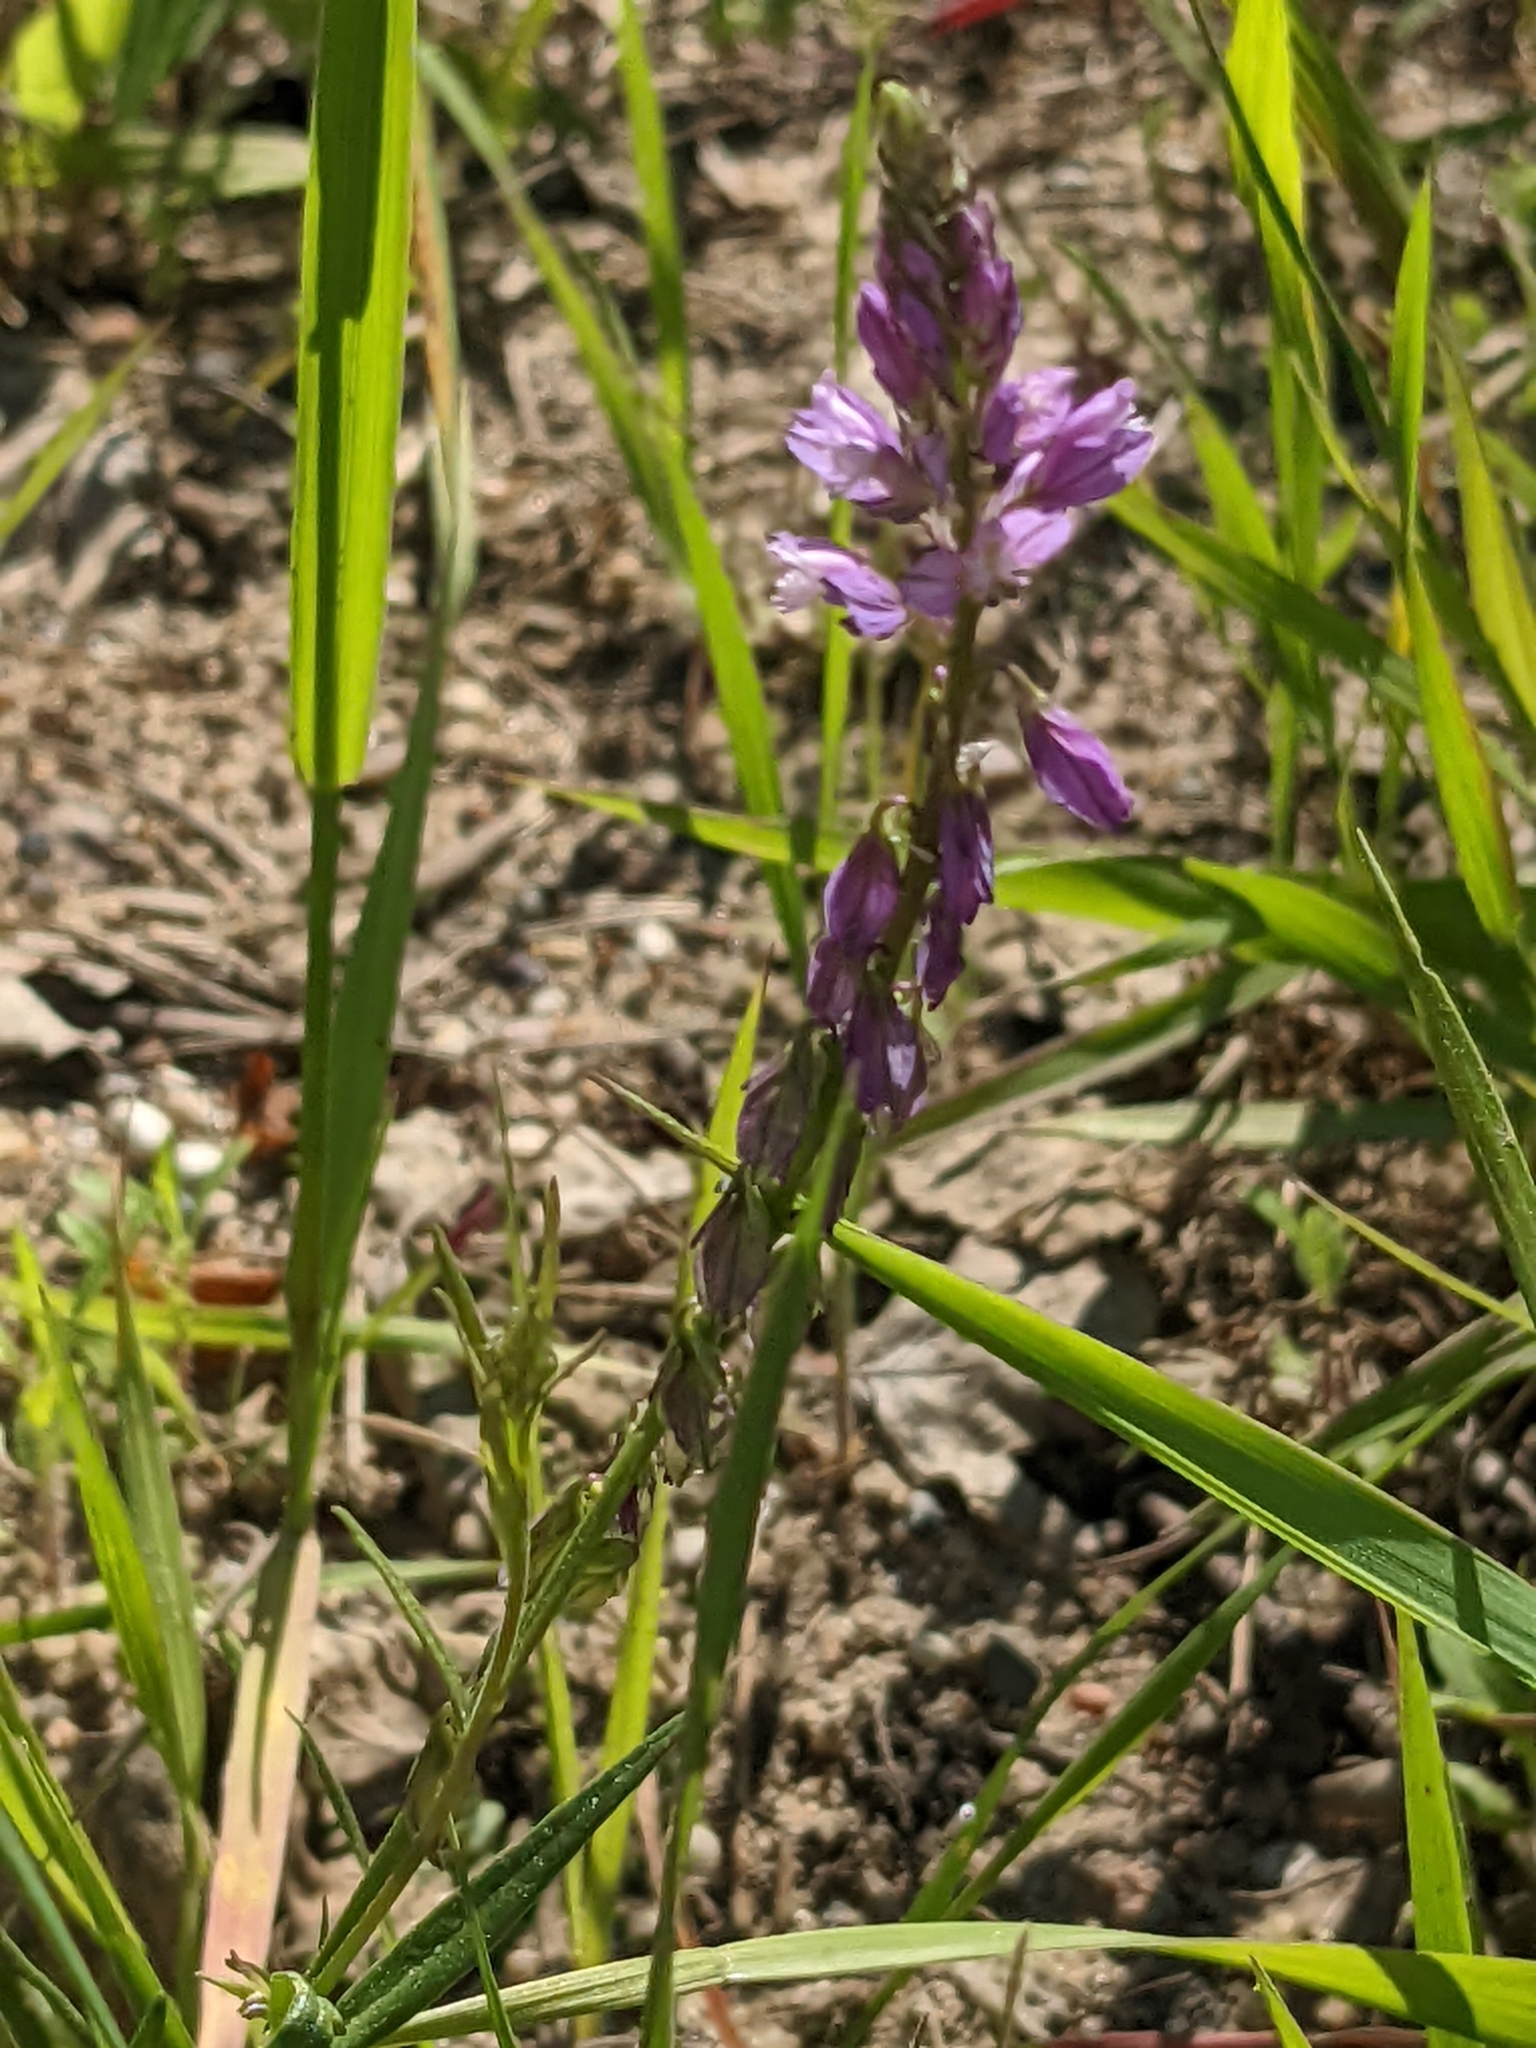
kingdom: Plantae
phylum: Tracheophyta
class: Magnoliopsida
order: Fabales
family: Polygalaceae
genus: Polygala
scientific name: Polygala comosa
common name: Tufted milkwort
